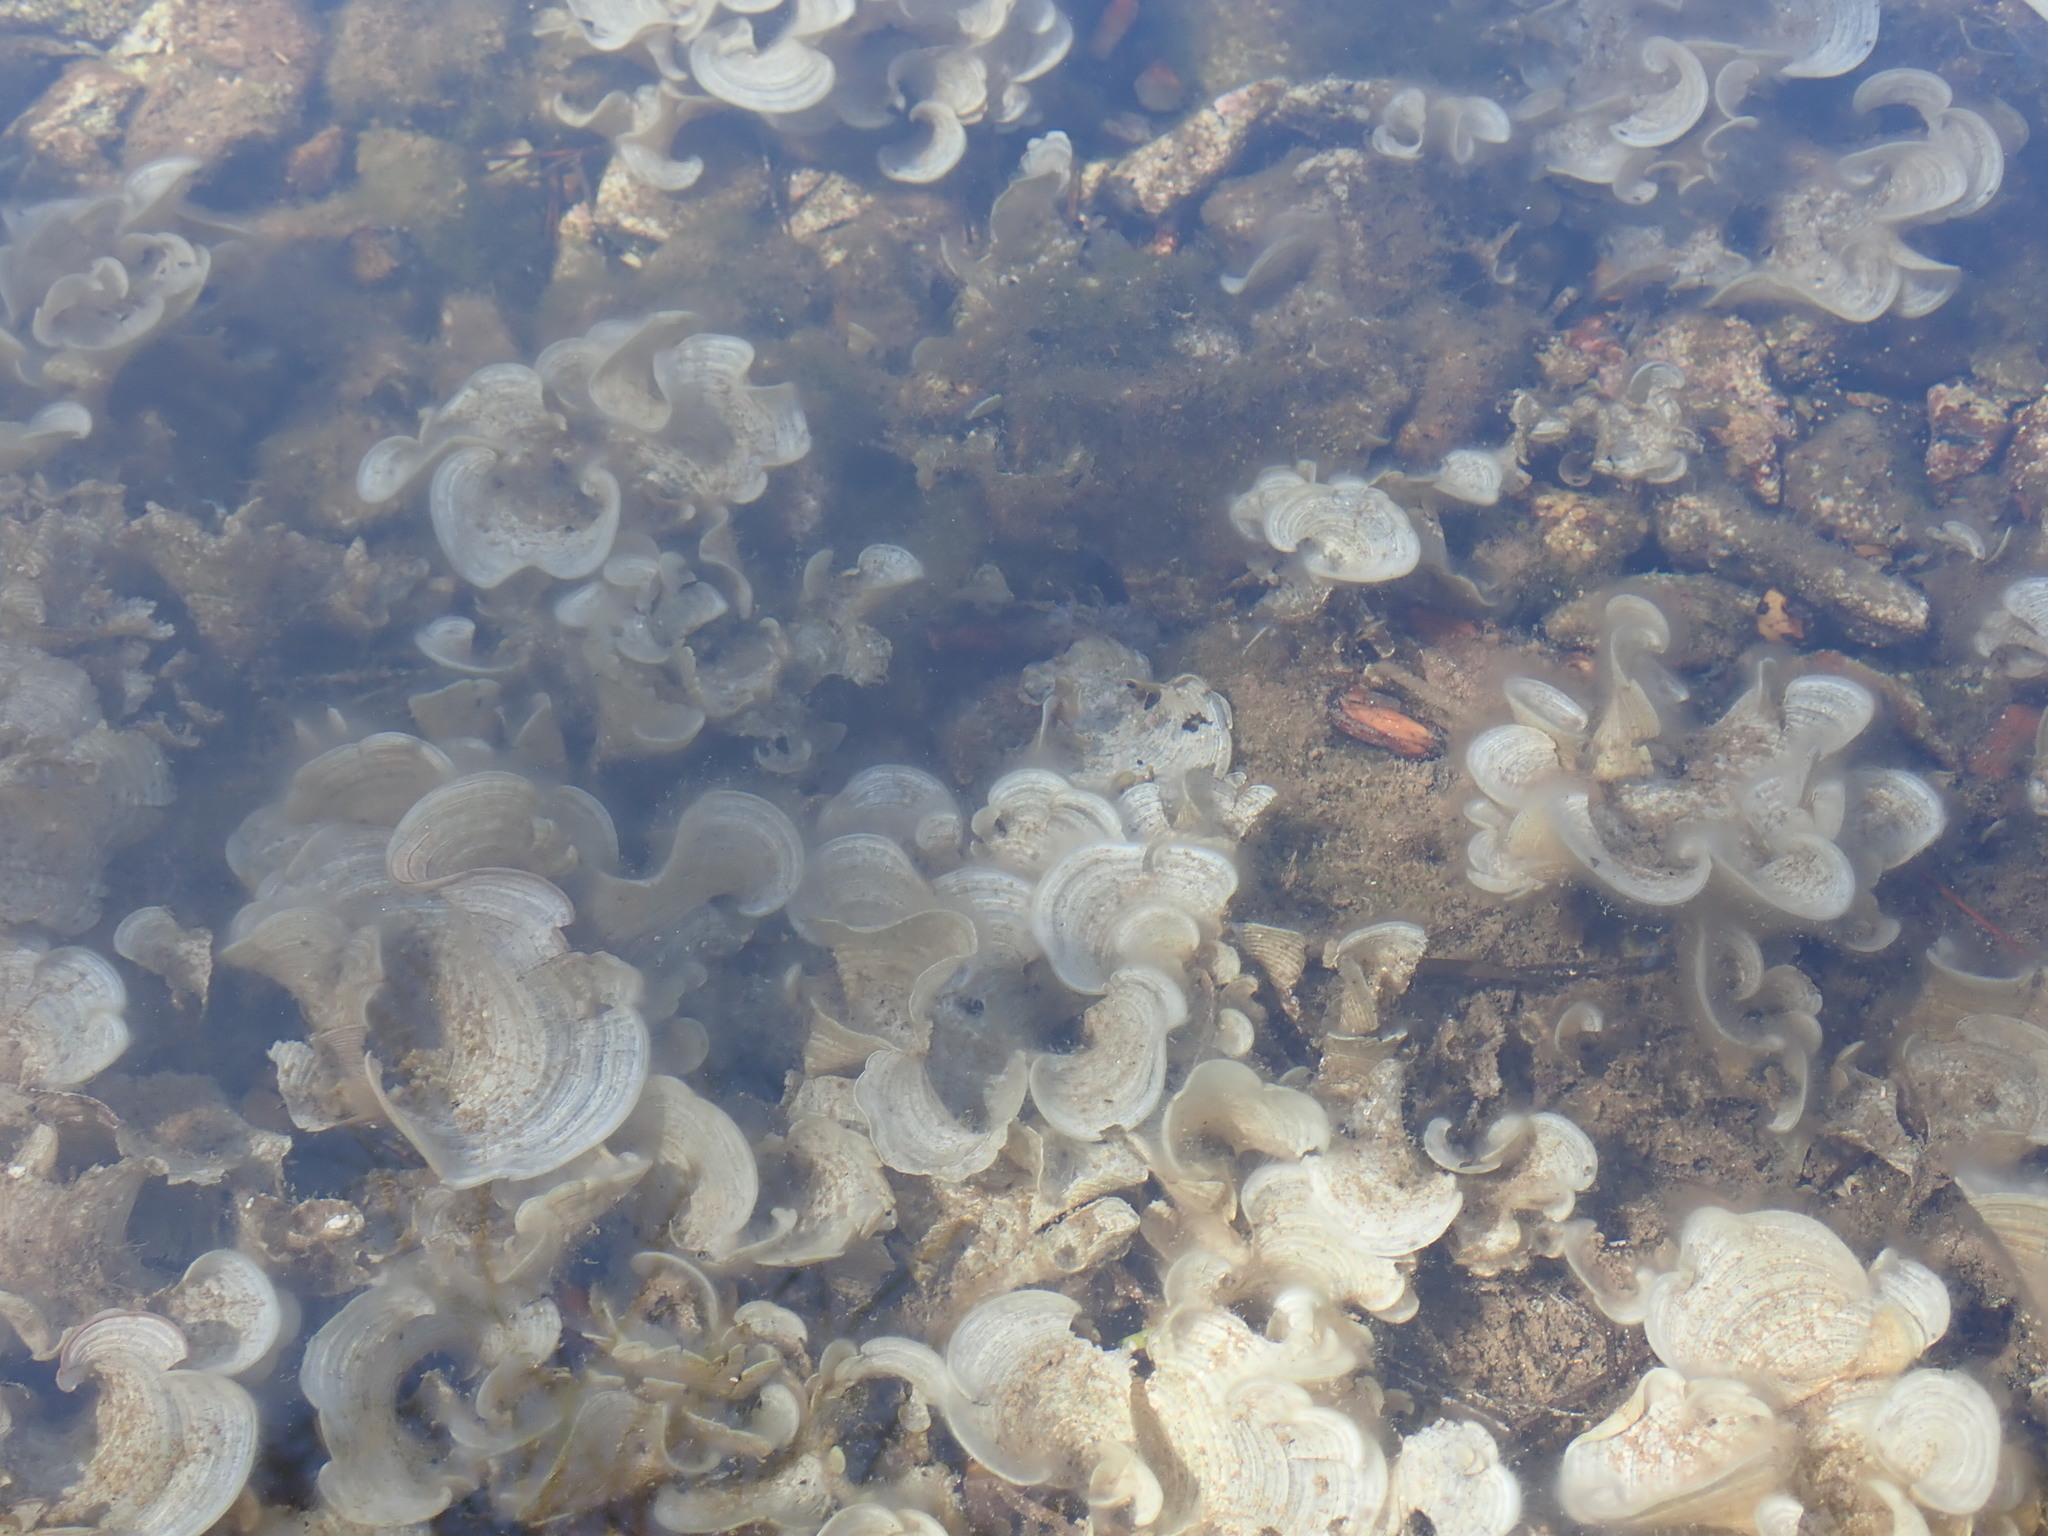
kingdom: Chromista
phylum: Ochrophyta
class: Phaeophyceae
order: Dictyotales
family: Dictyotaceae
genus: Padina
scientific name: Padina
